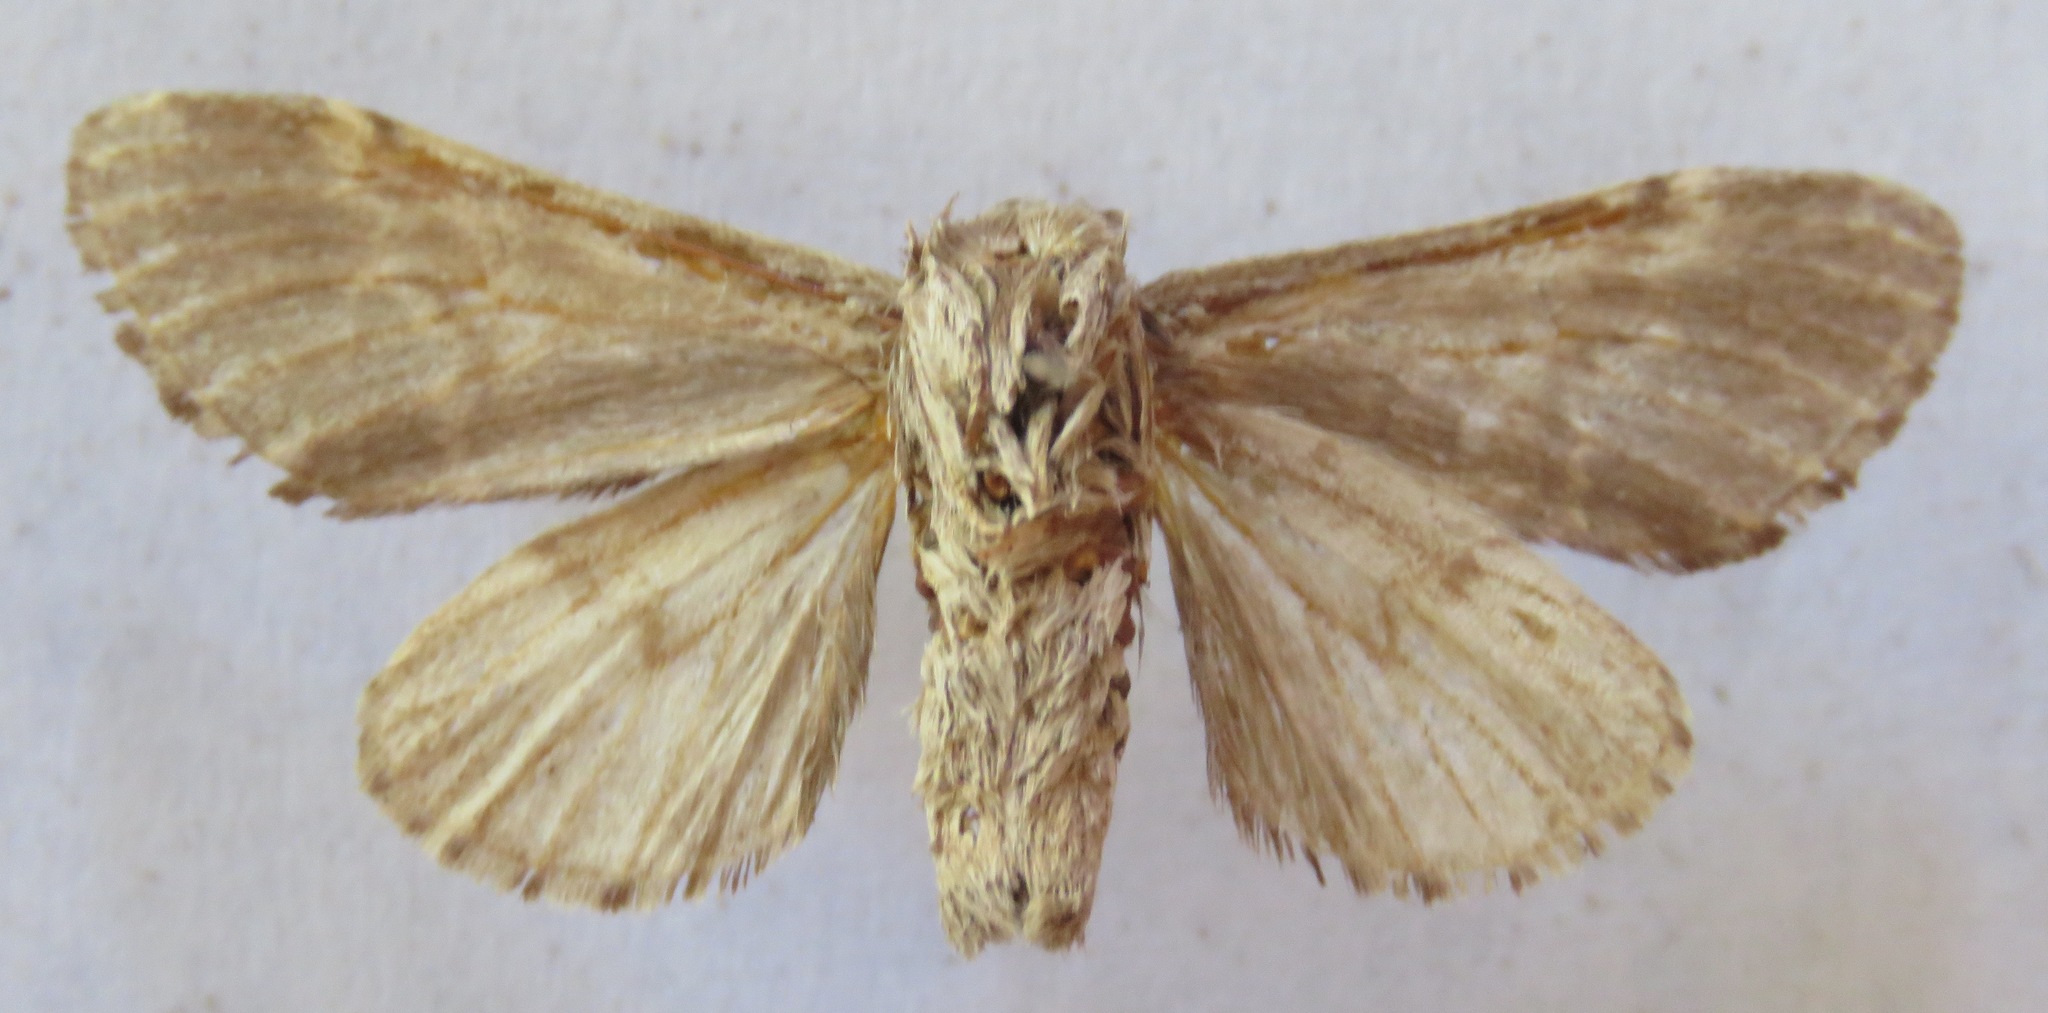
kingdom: Animalia
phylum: Arthropoda
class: Insecta
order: Lepidoptera
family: Notodontidae
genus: Drymonia
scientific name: Drymonia ruficornis
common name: Lunar marbled brown
